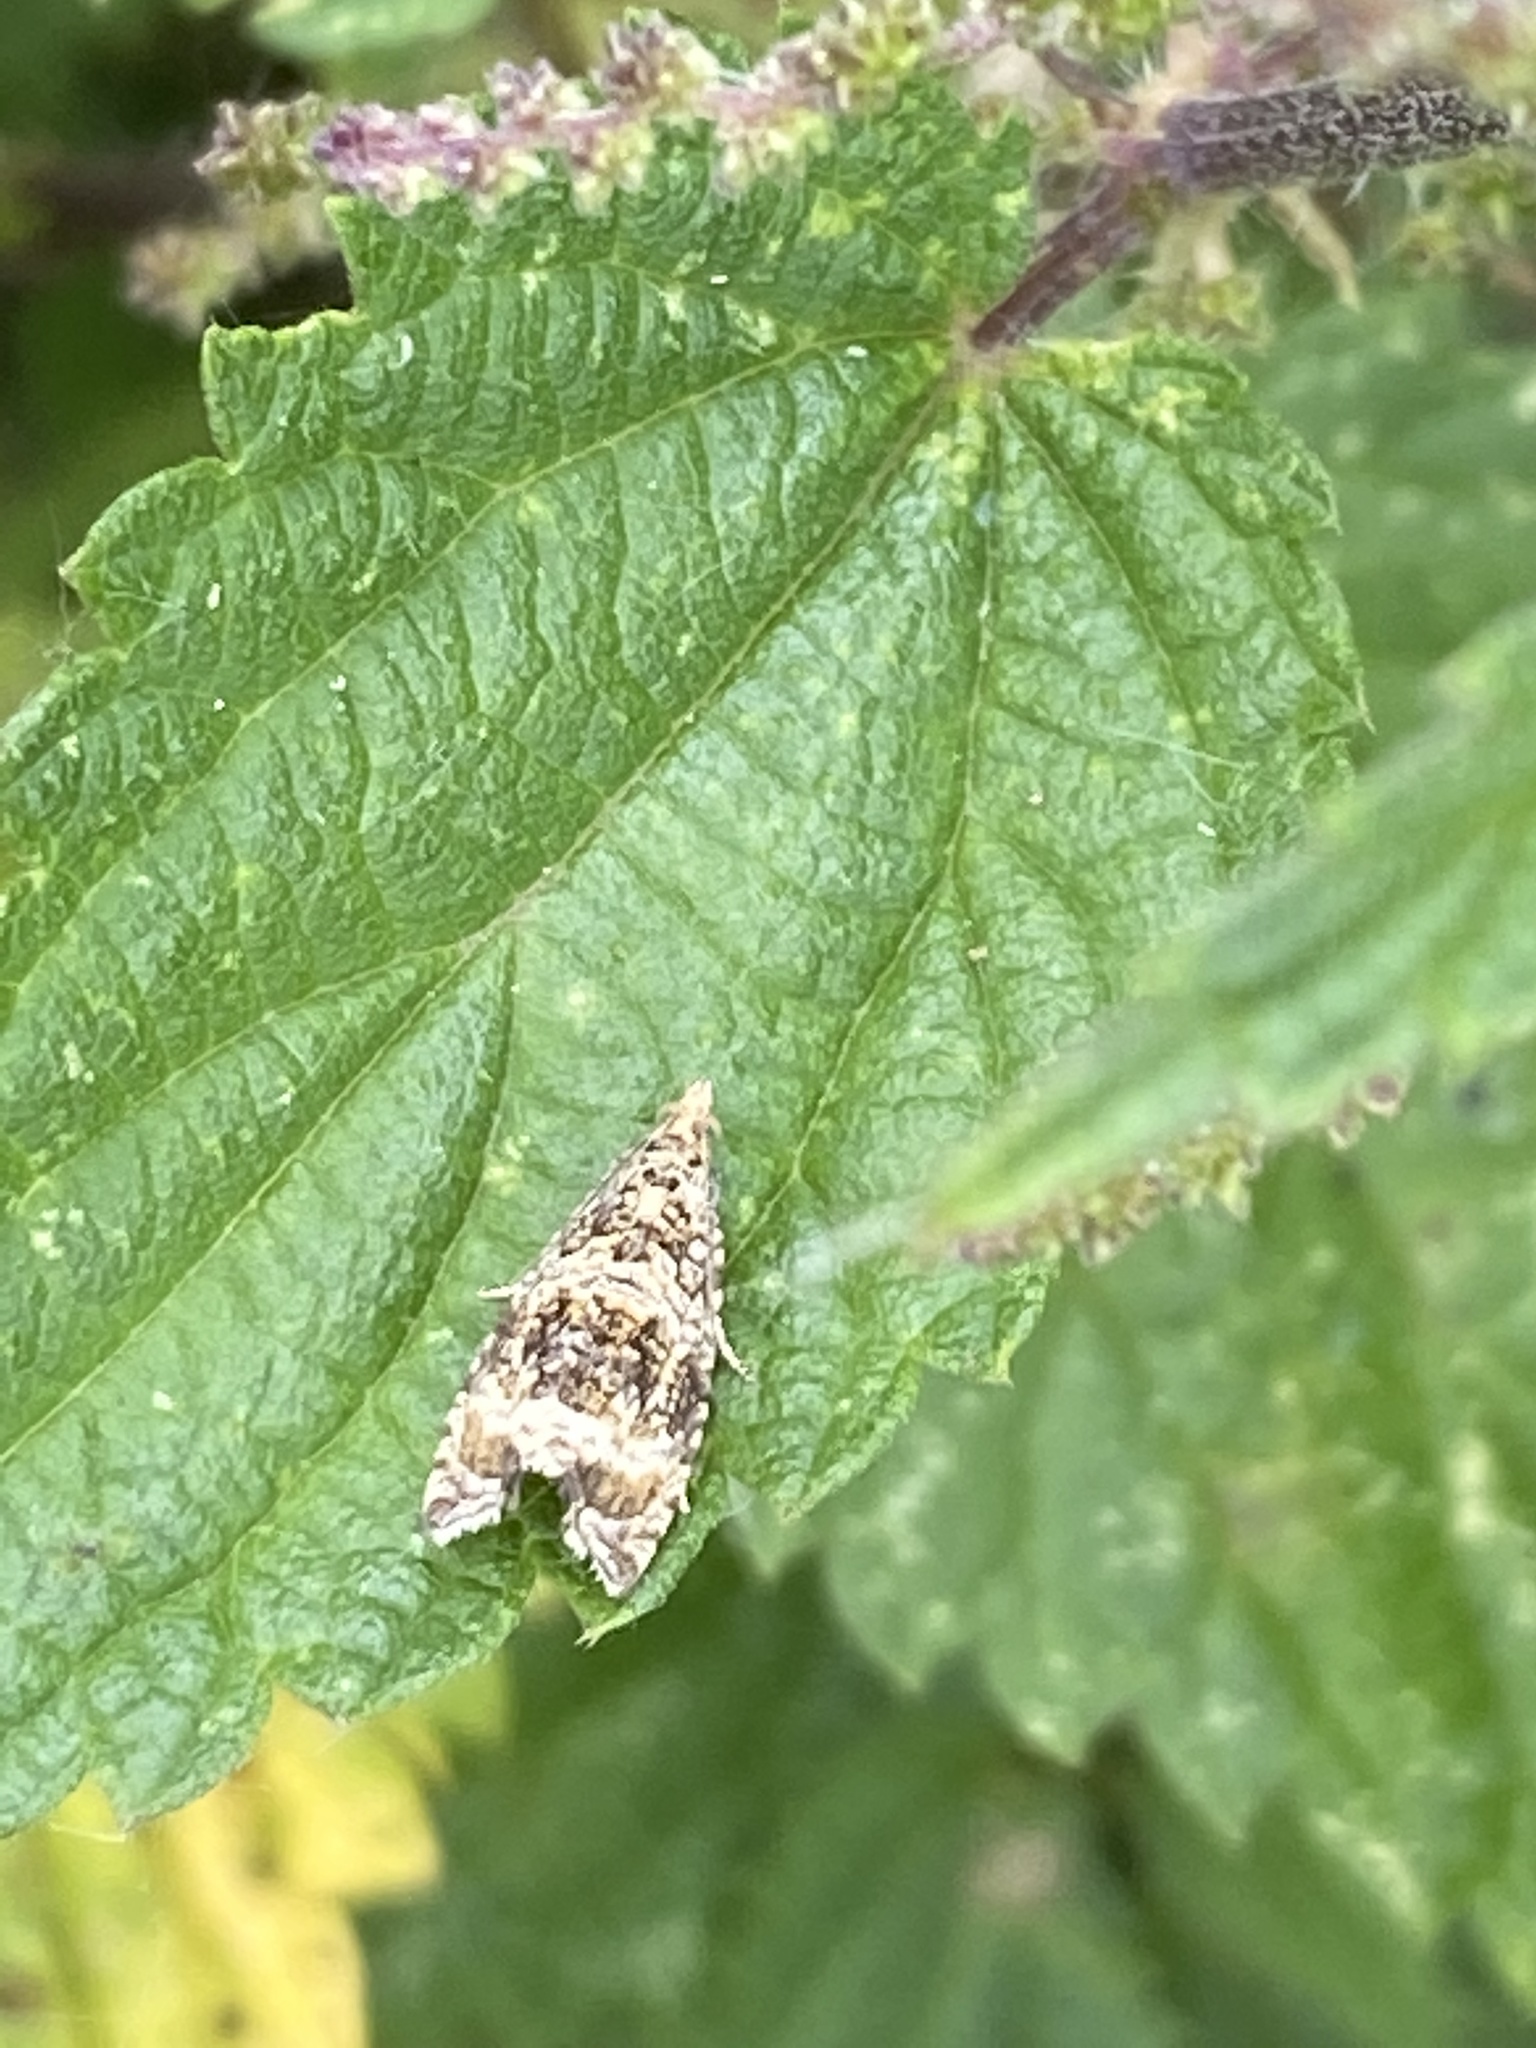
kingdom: Animalia
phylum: Arthropoda
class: Insecta
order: Lepidoptera
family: Tortricidae
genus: Syricoris
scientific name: Syricoris lacunana
